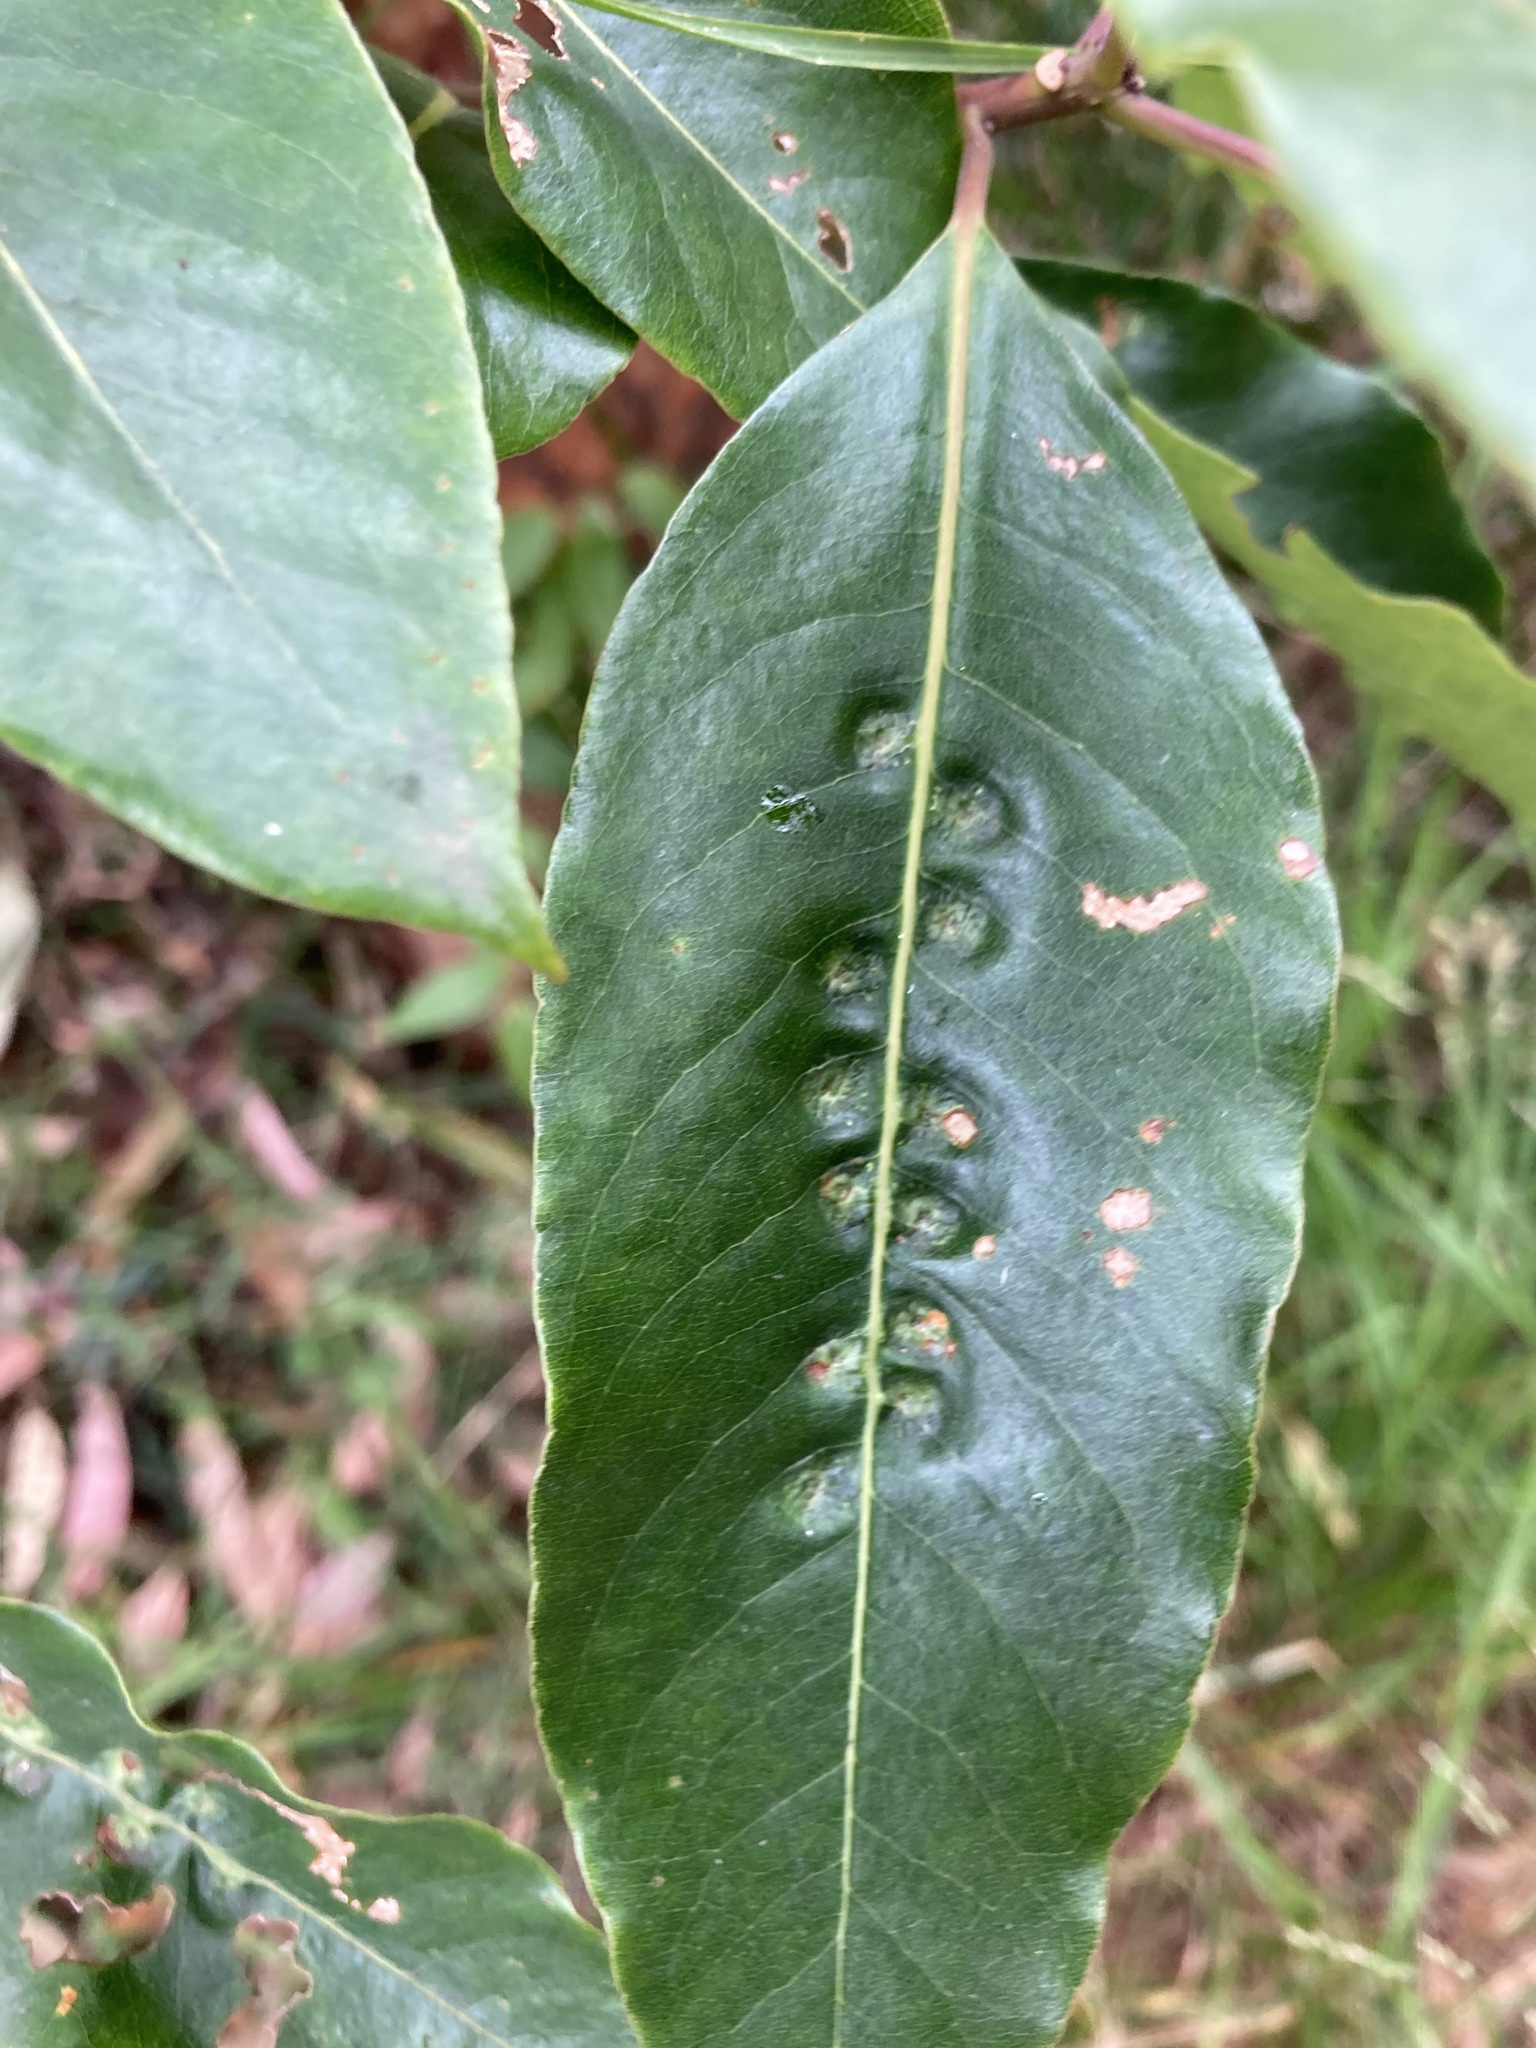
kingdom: Animalia
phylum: Arthropoda
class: Insecta
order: Diptera
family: Agromyzidae
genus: Phytoliriomyza
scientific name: Phytoliriomyza pittosporophylli
